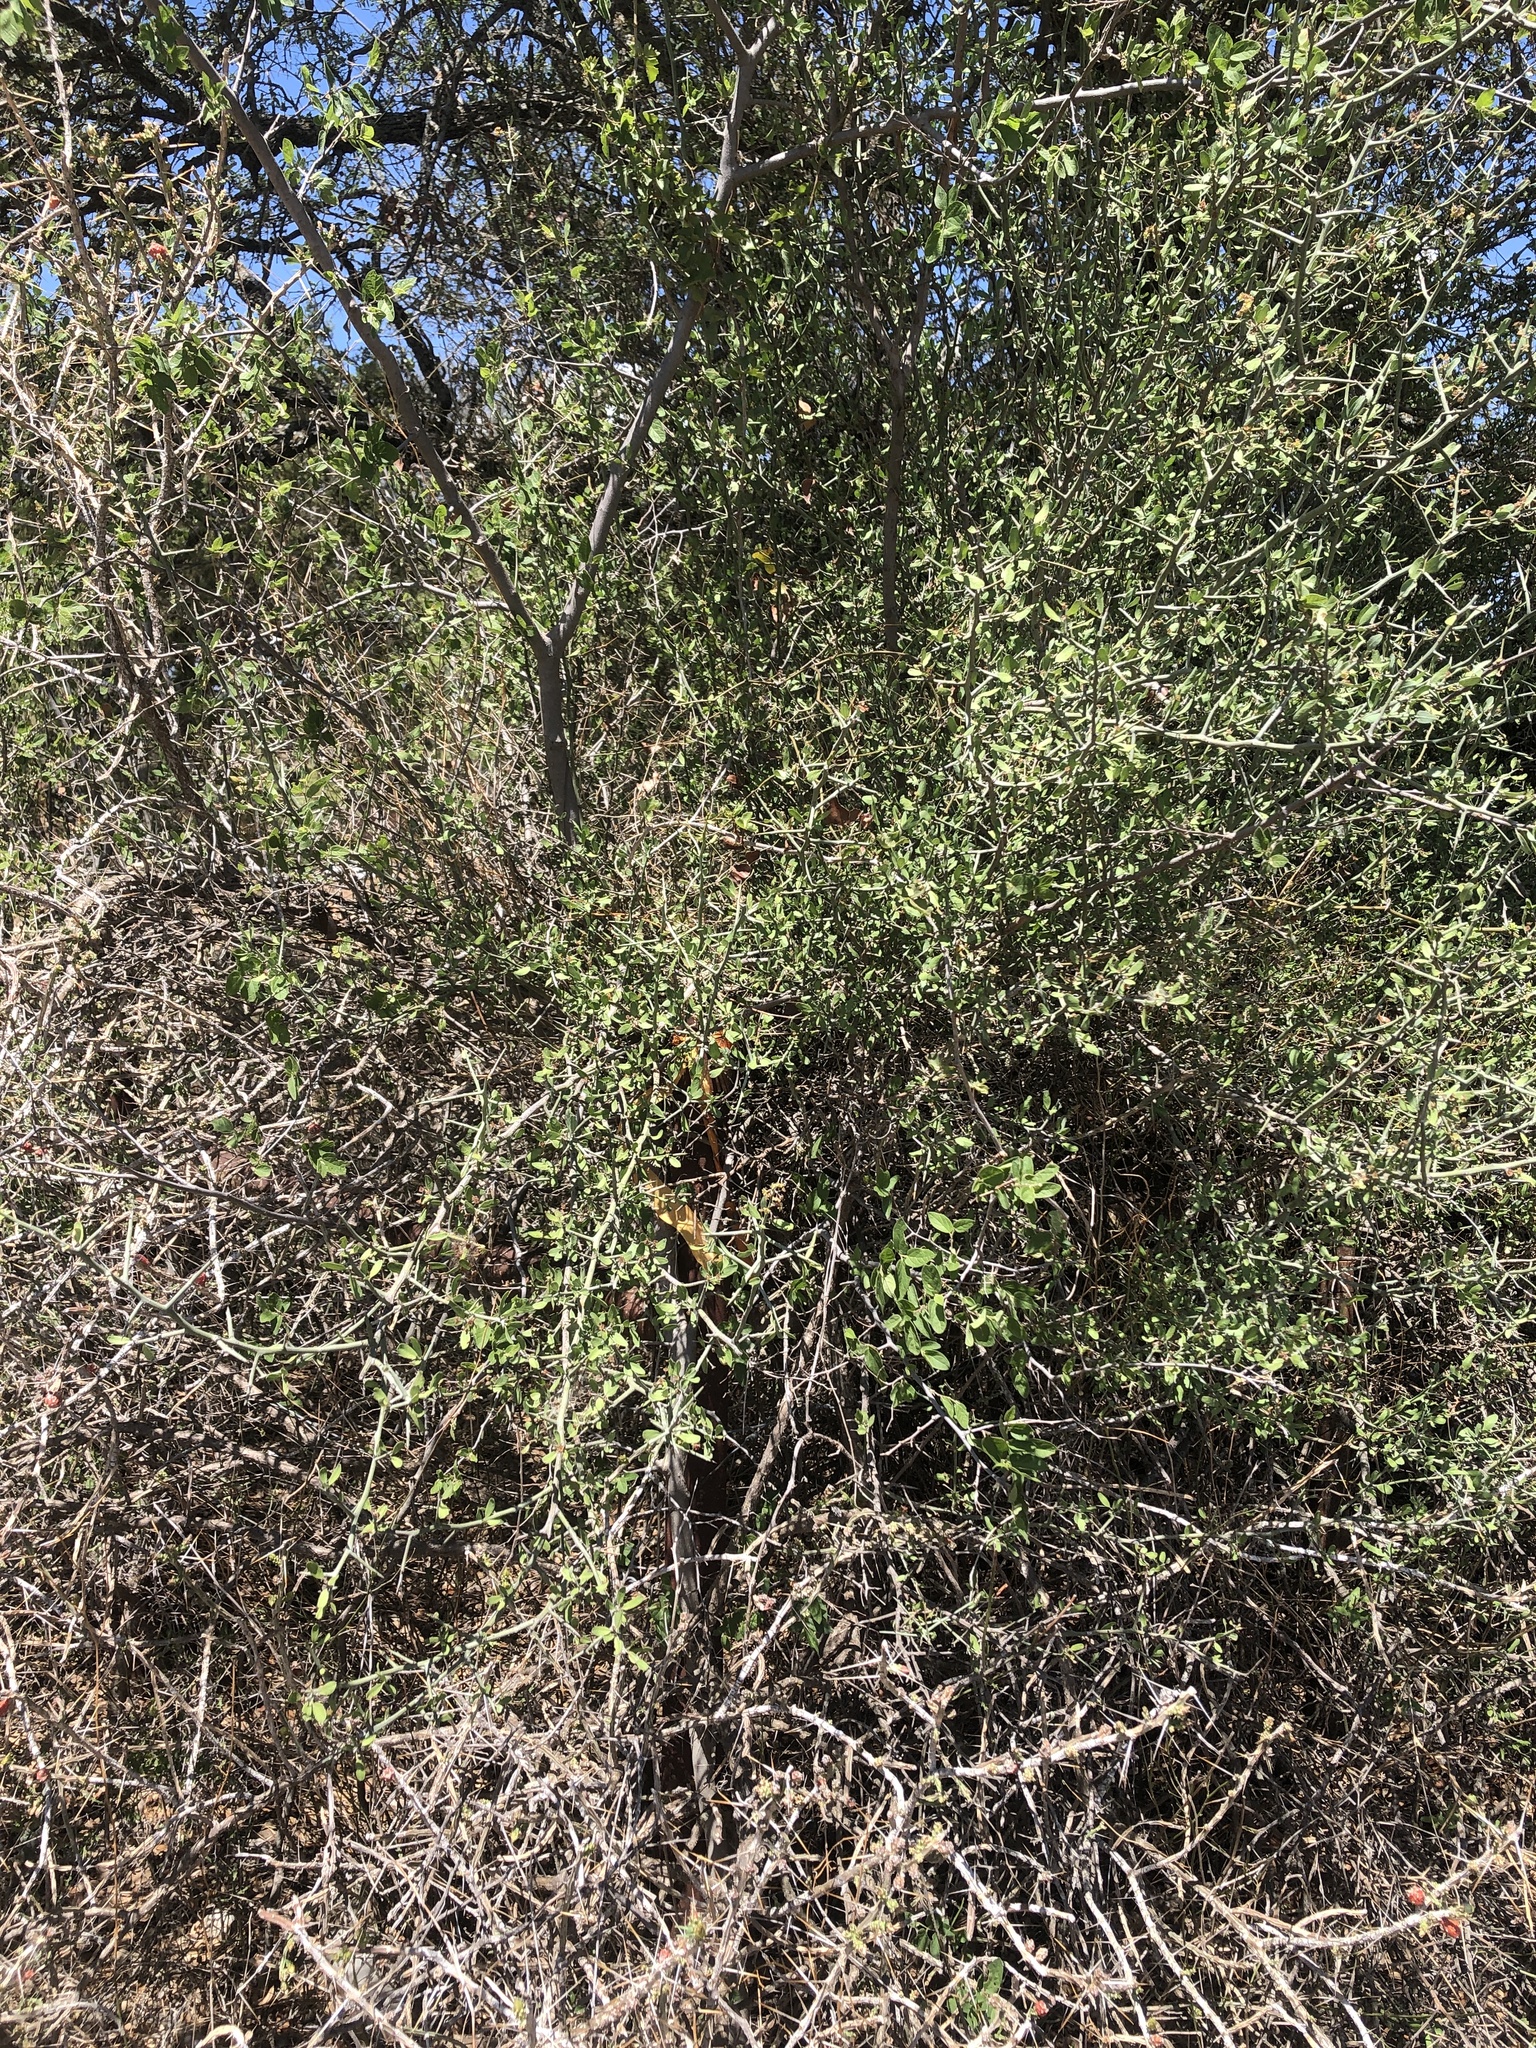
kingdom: Plantae
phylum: Tracheophyta
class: Magnoliopsida
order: Rosales
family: Rhamnaceae
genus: Sarcomphalus
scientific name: Sarcomphalus obtusifolius
